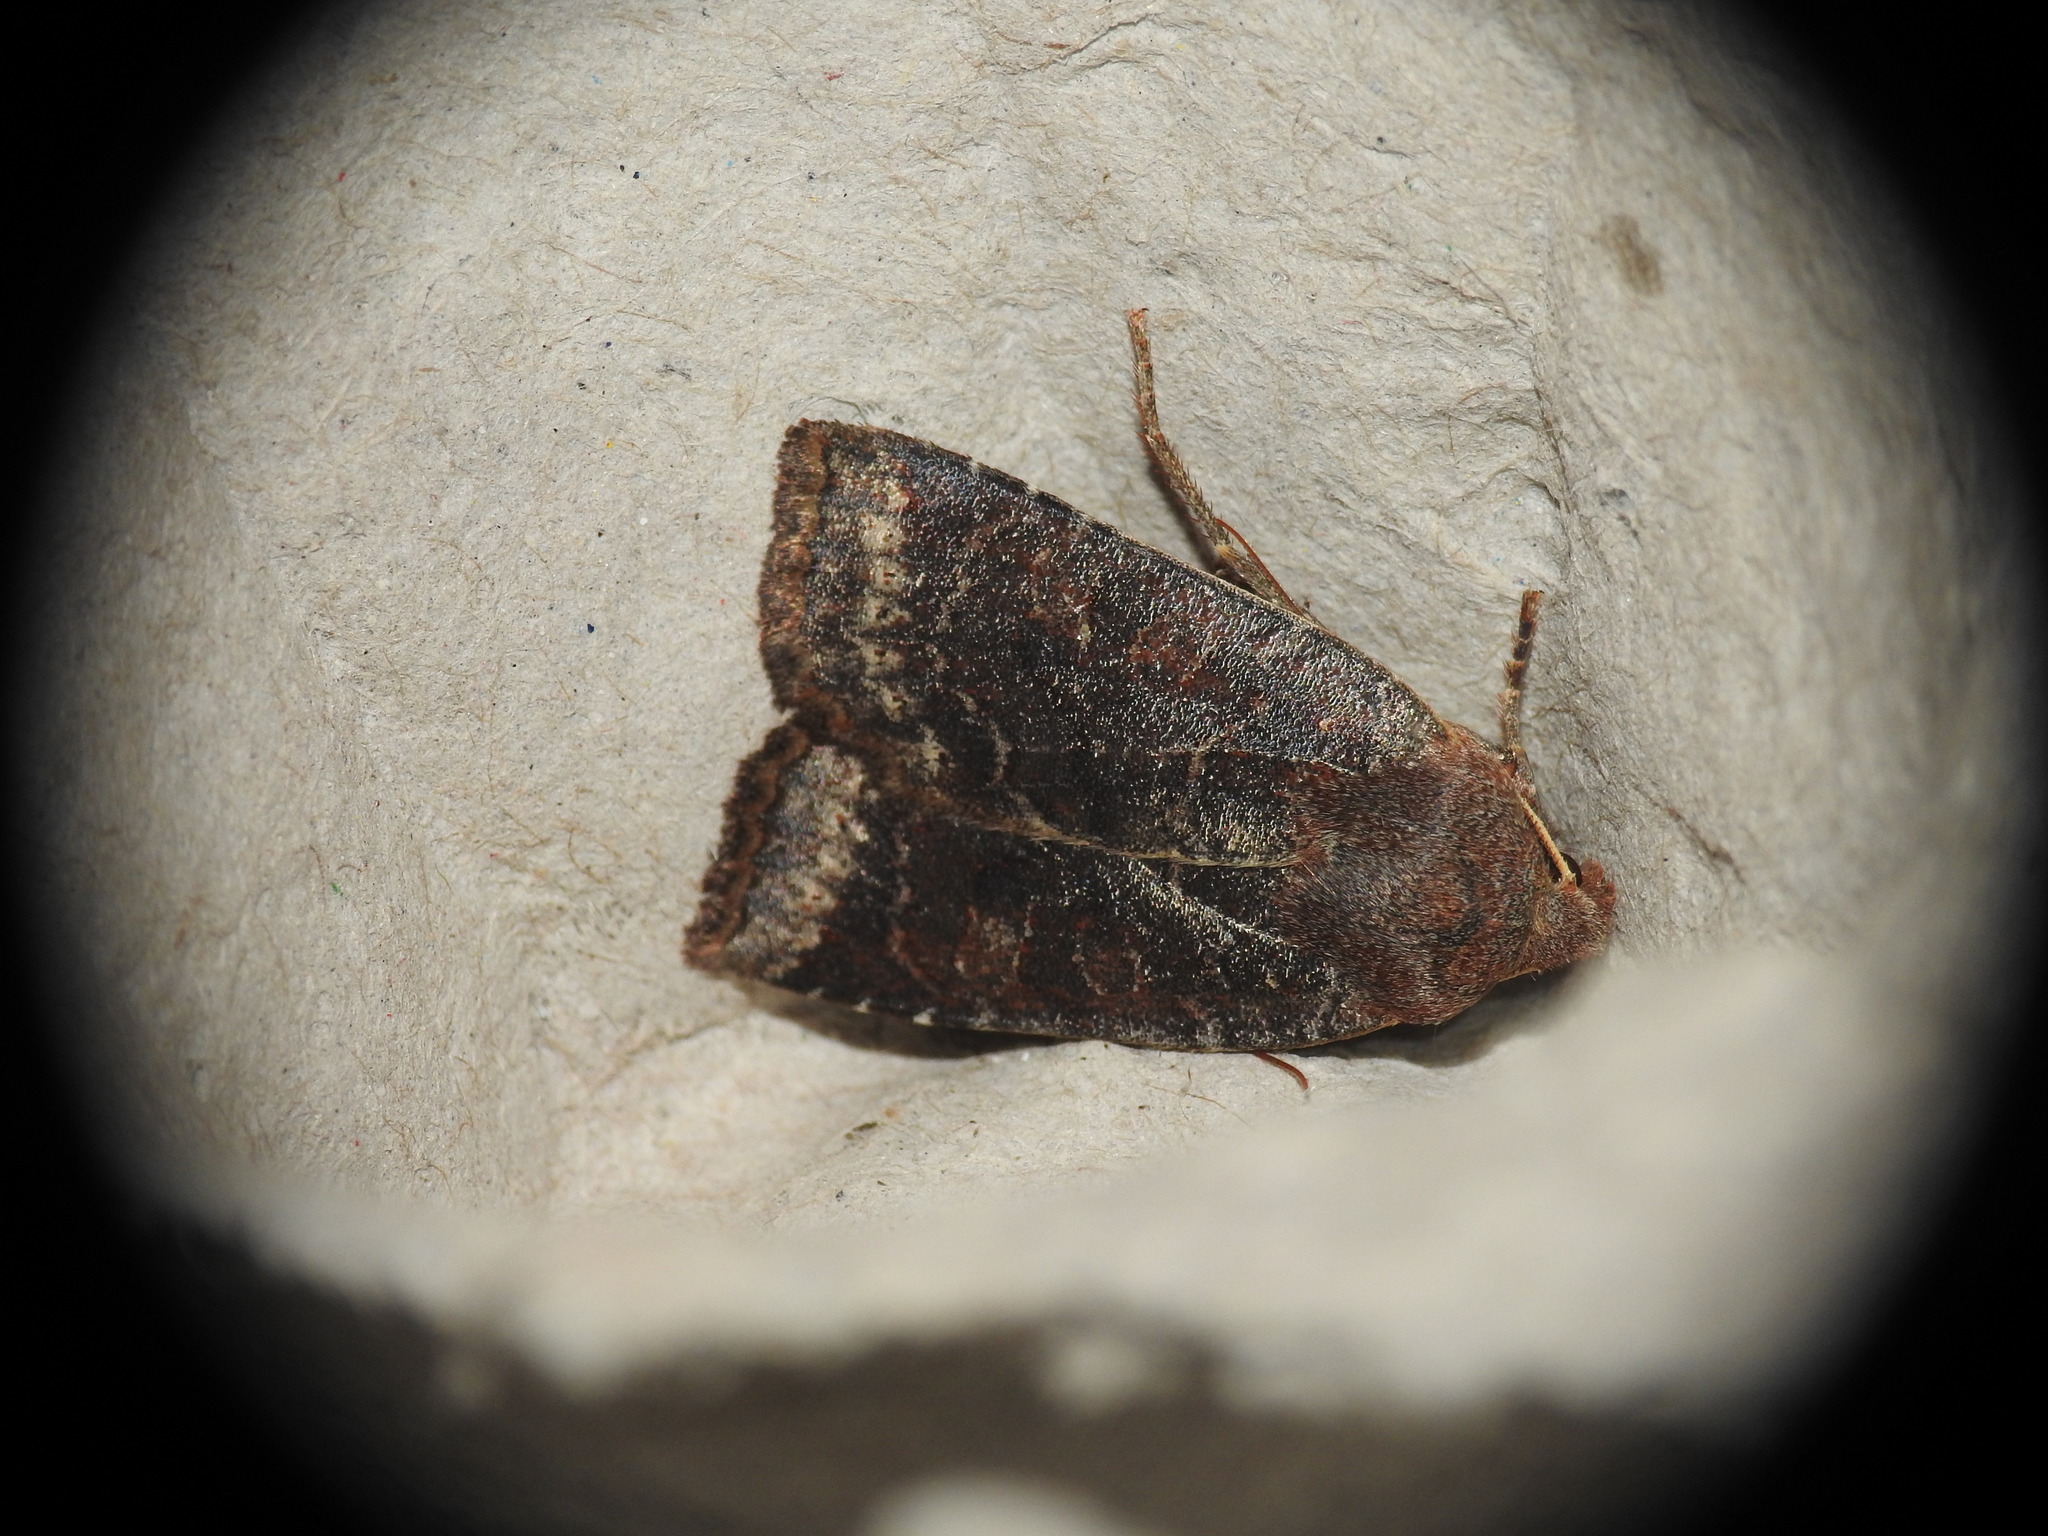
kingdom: Animalia
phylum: Arthropoda
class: Insecta
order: Lepidoptera
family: Noctuidae
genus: Conistra
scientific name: Conistra ligula
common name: Dark chestnut
